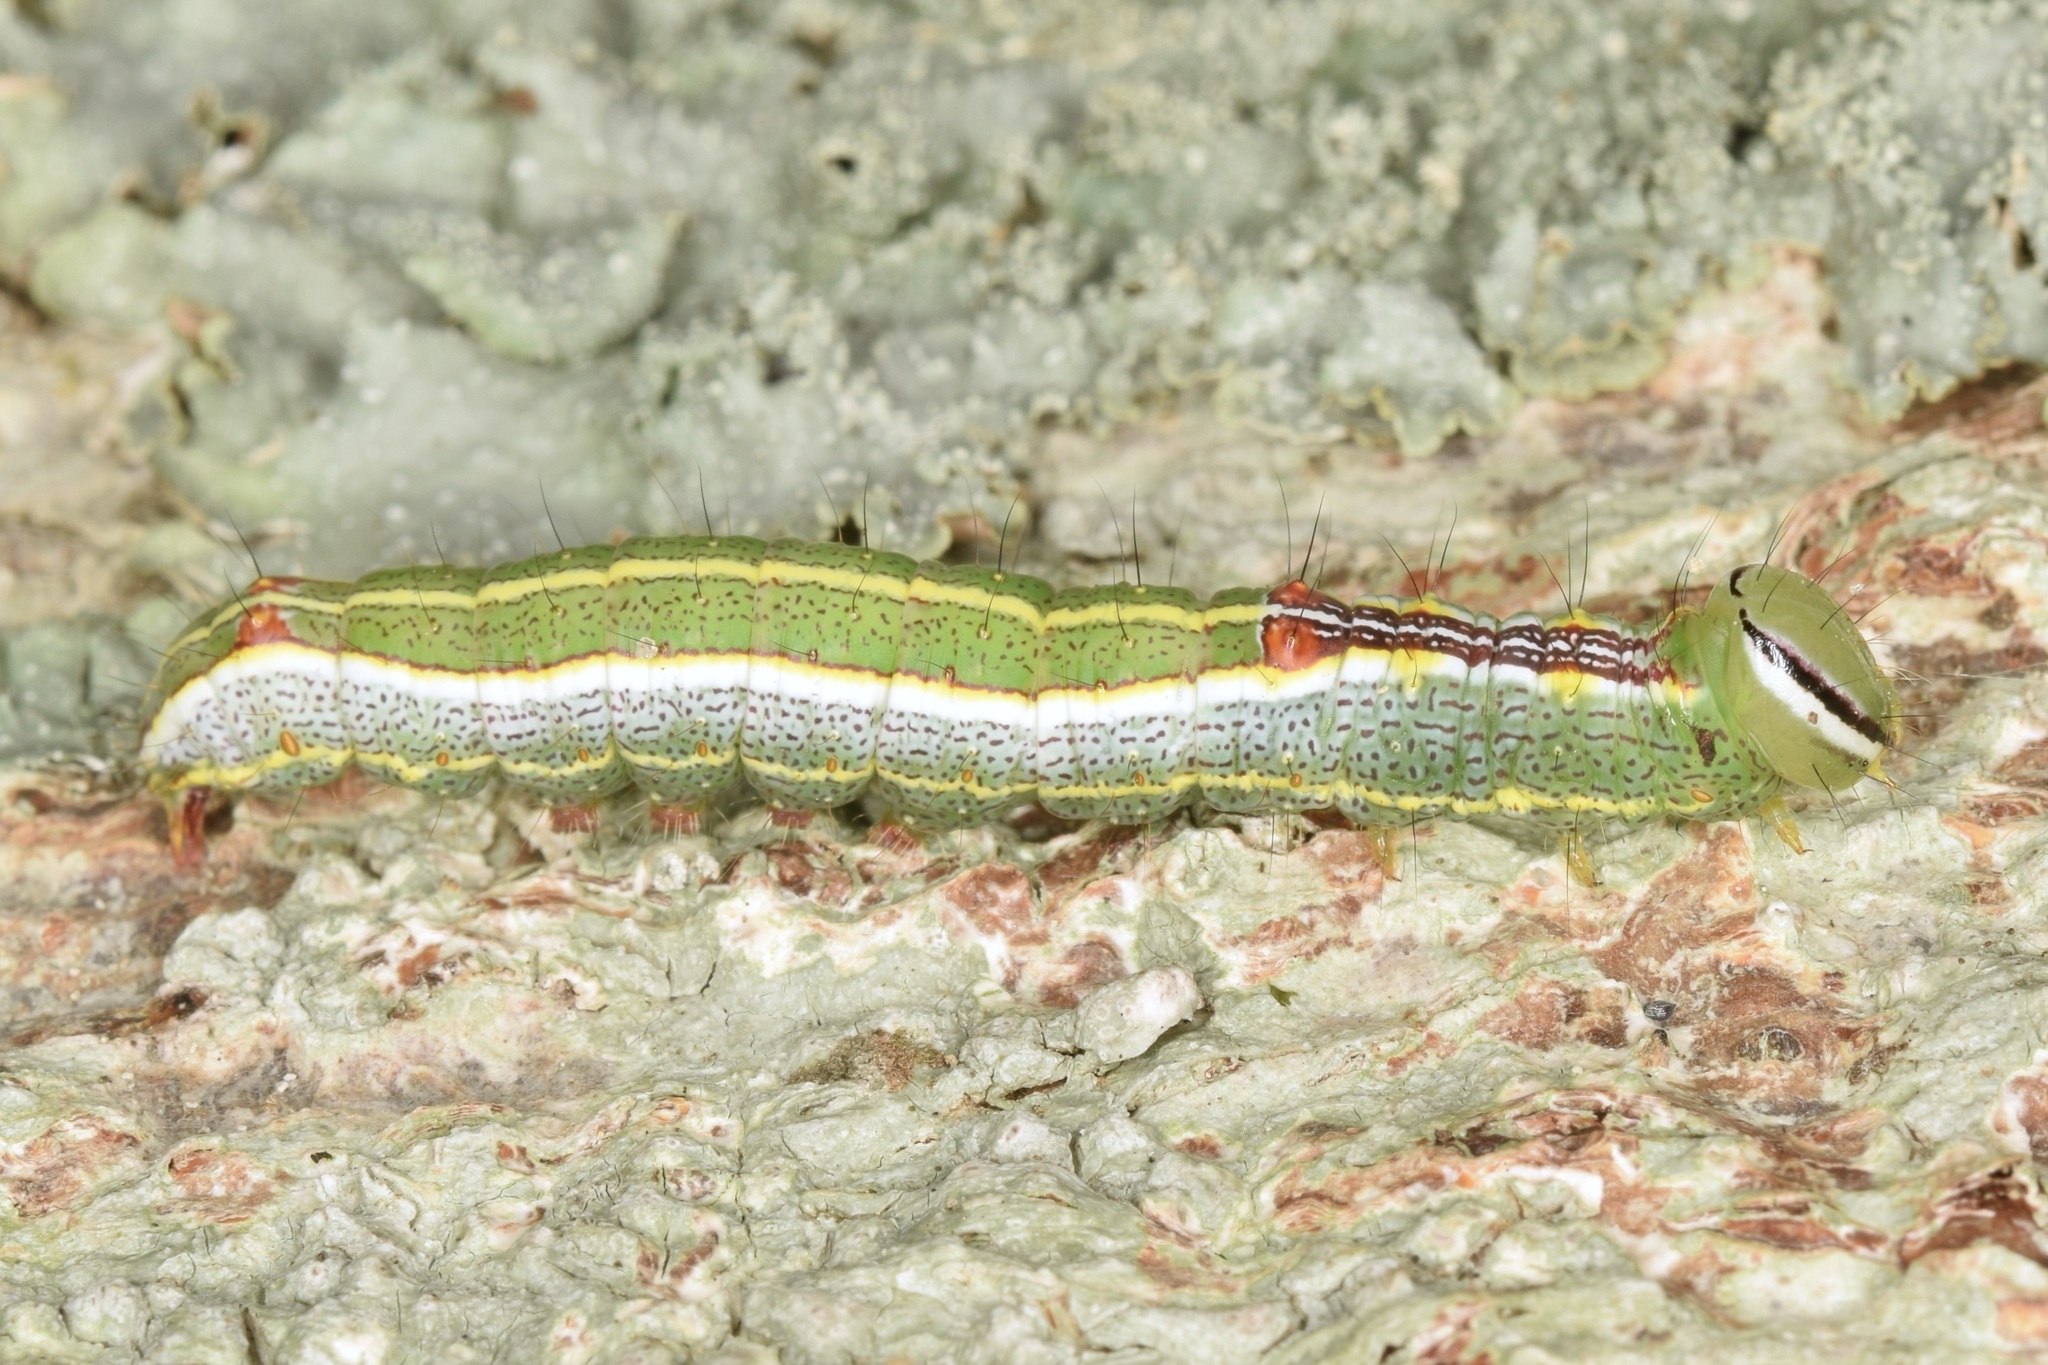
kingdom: Animalia
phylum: Arthropoda
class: Insecta
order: Lepidoptera
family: Notodontidae
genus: Lochmaeus
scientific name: Lochmaeus manteo
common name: Variable oakleaf caterpillar moth
